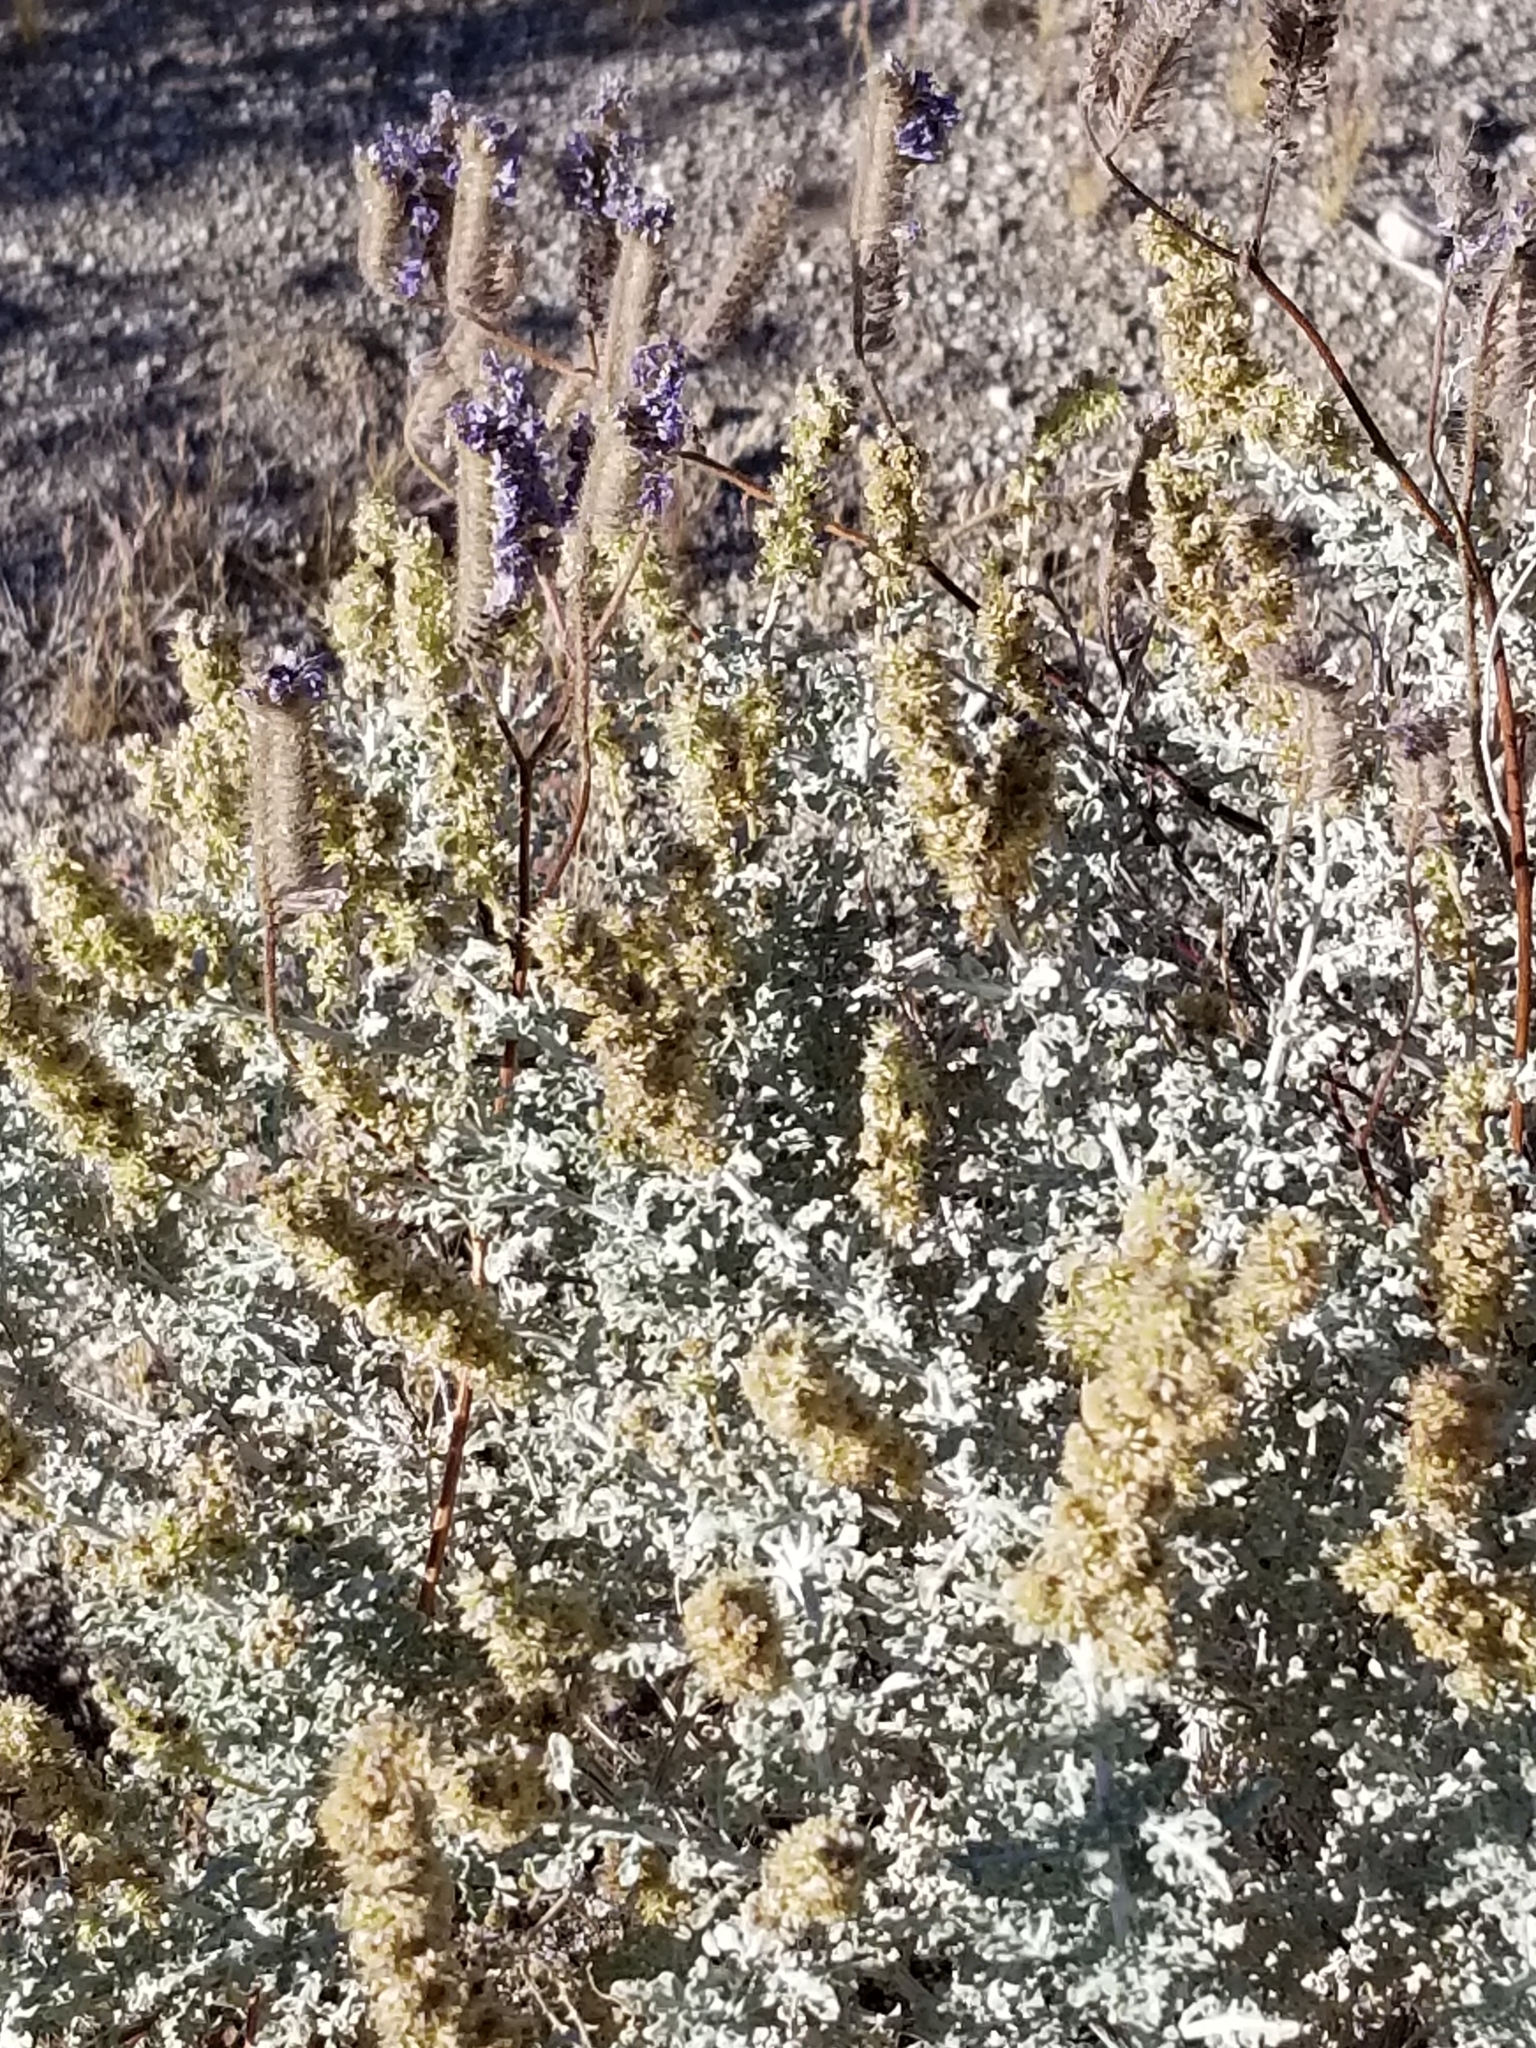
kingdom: Plantae
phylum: Tracheophyta
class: Magnoliopsida
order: Asterales
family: Asteraceae
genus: Ambrosia
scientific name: Ambrosia dumosa
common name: Bur-sage
